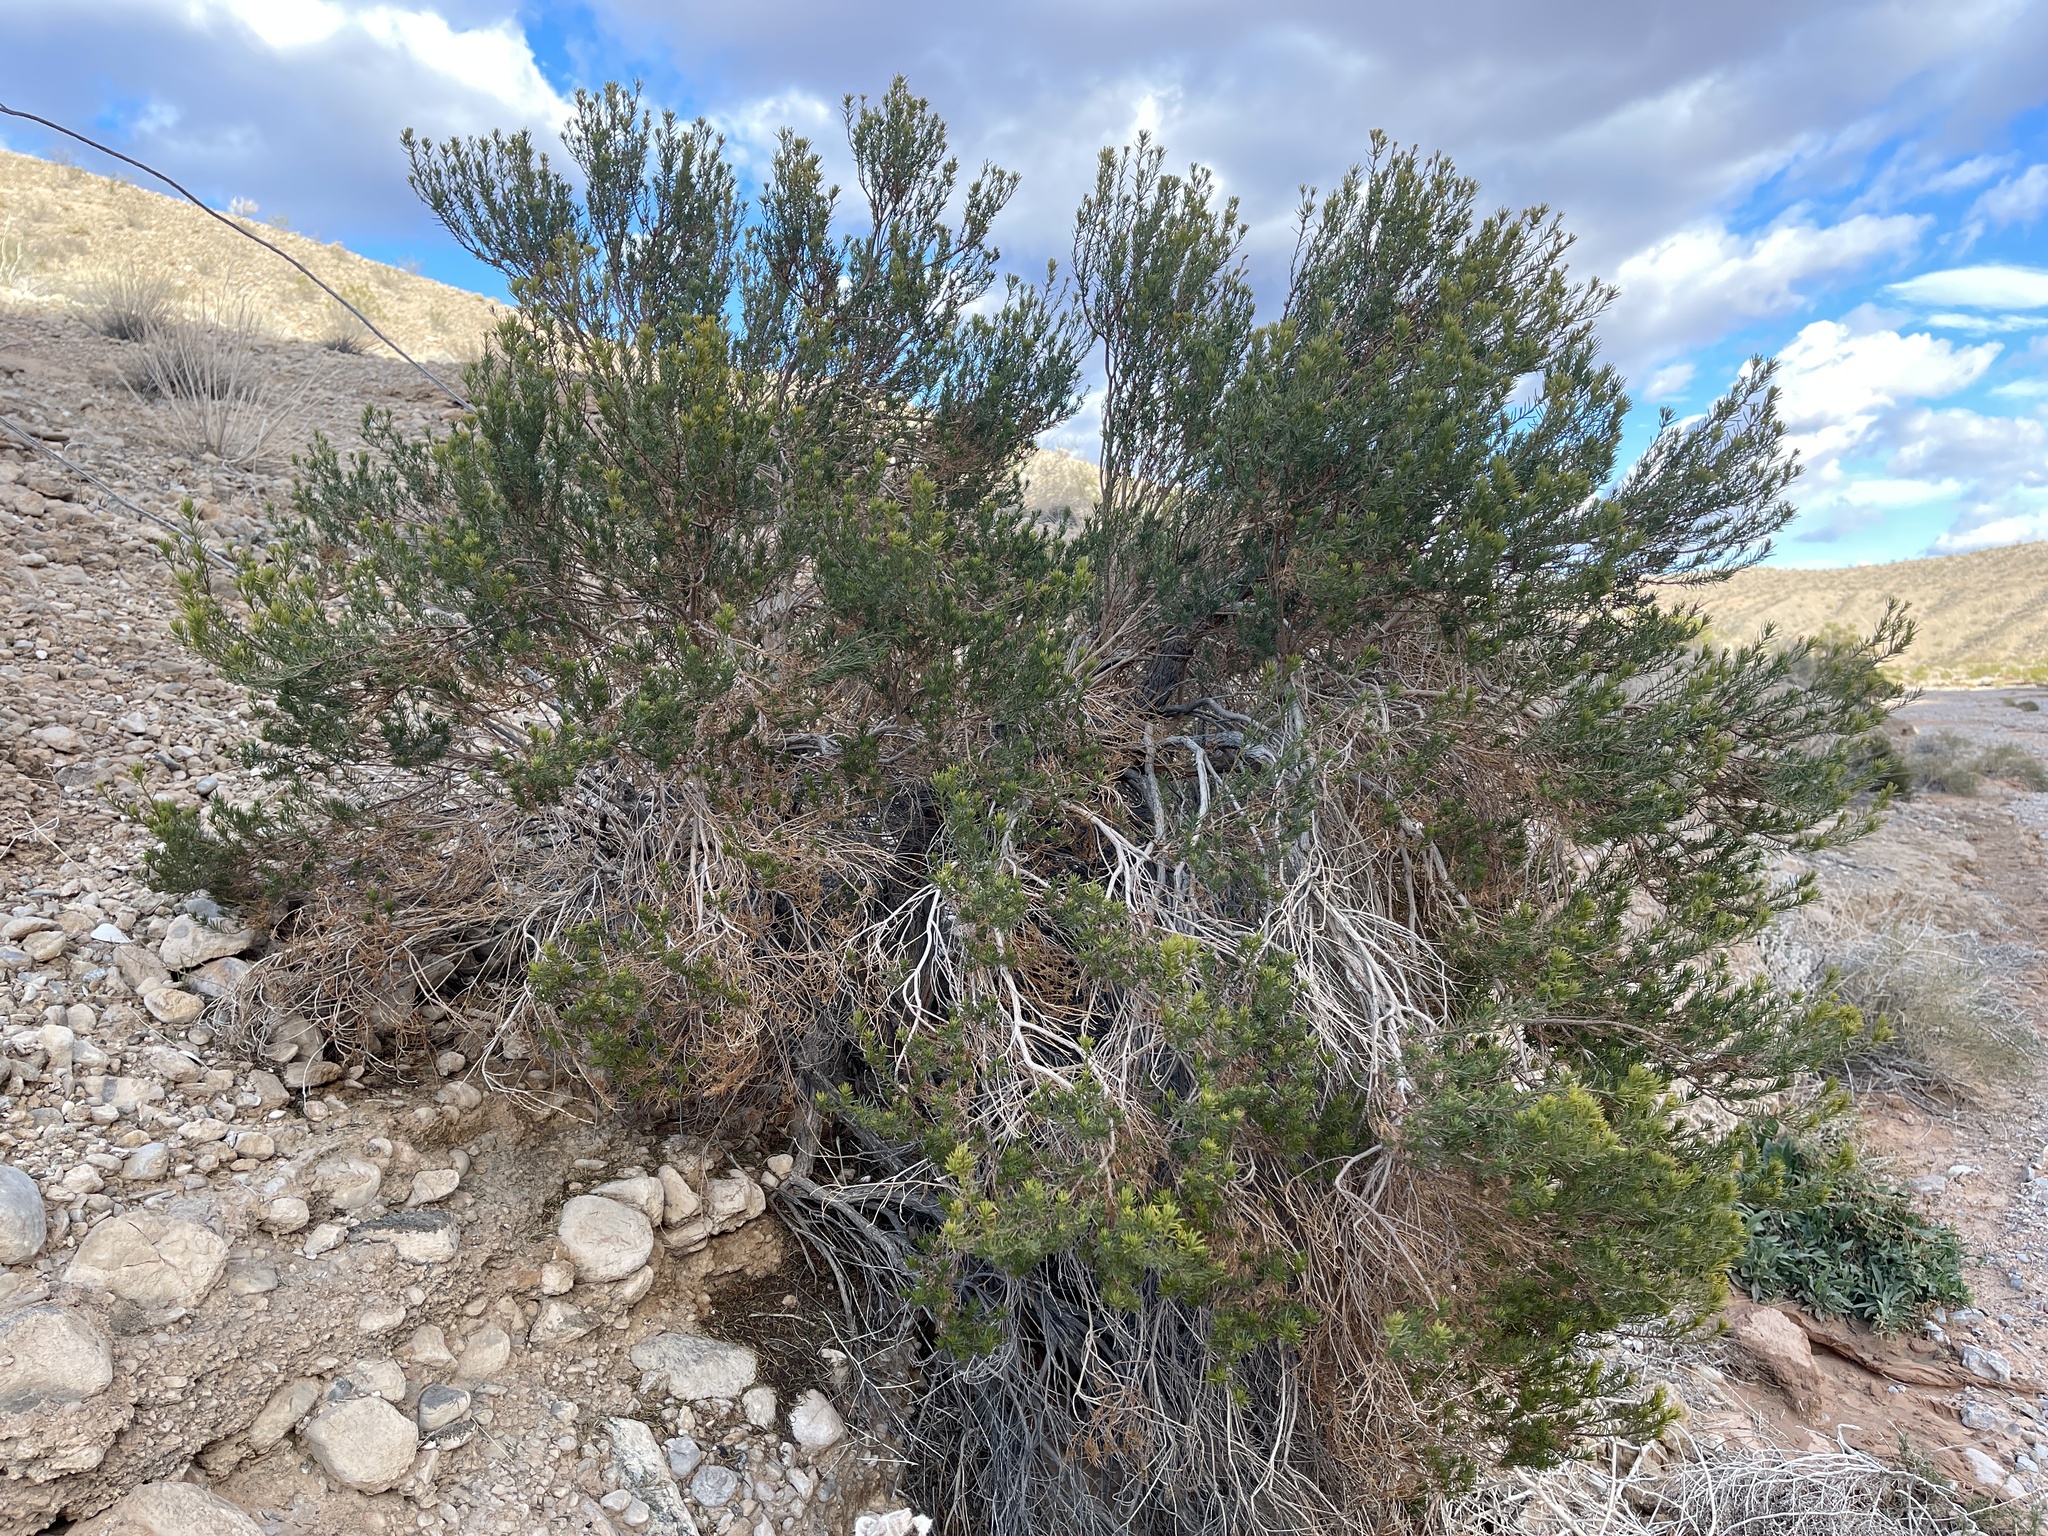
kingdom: Plantae
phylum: Tracheophyta
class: Magnoliopsida
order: Asterales
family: Asteraceae
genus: Peucephyllum
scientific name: Peucephyllum schottii
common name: Pygmy-cedar
